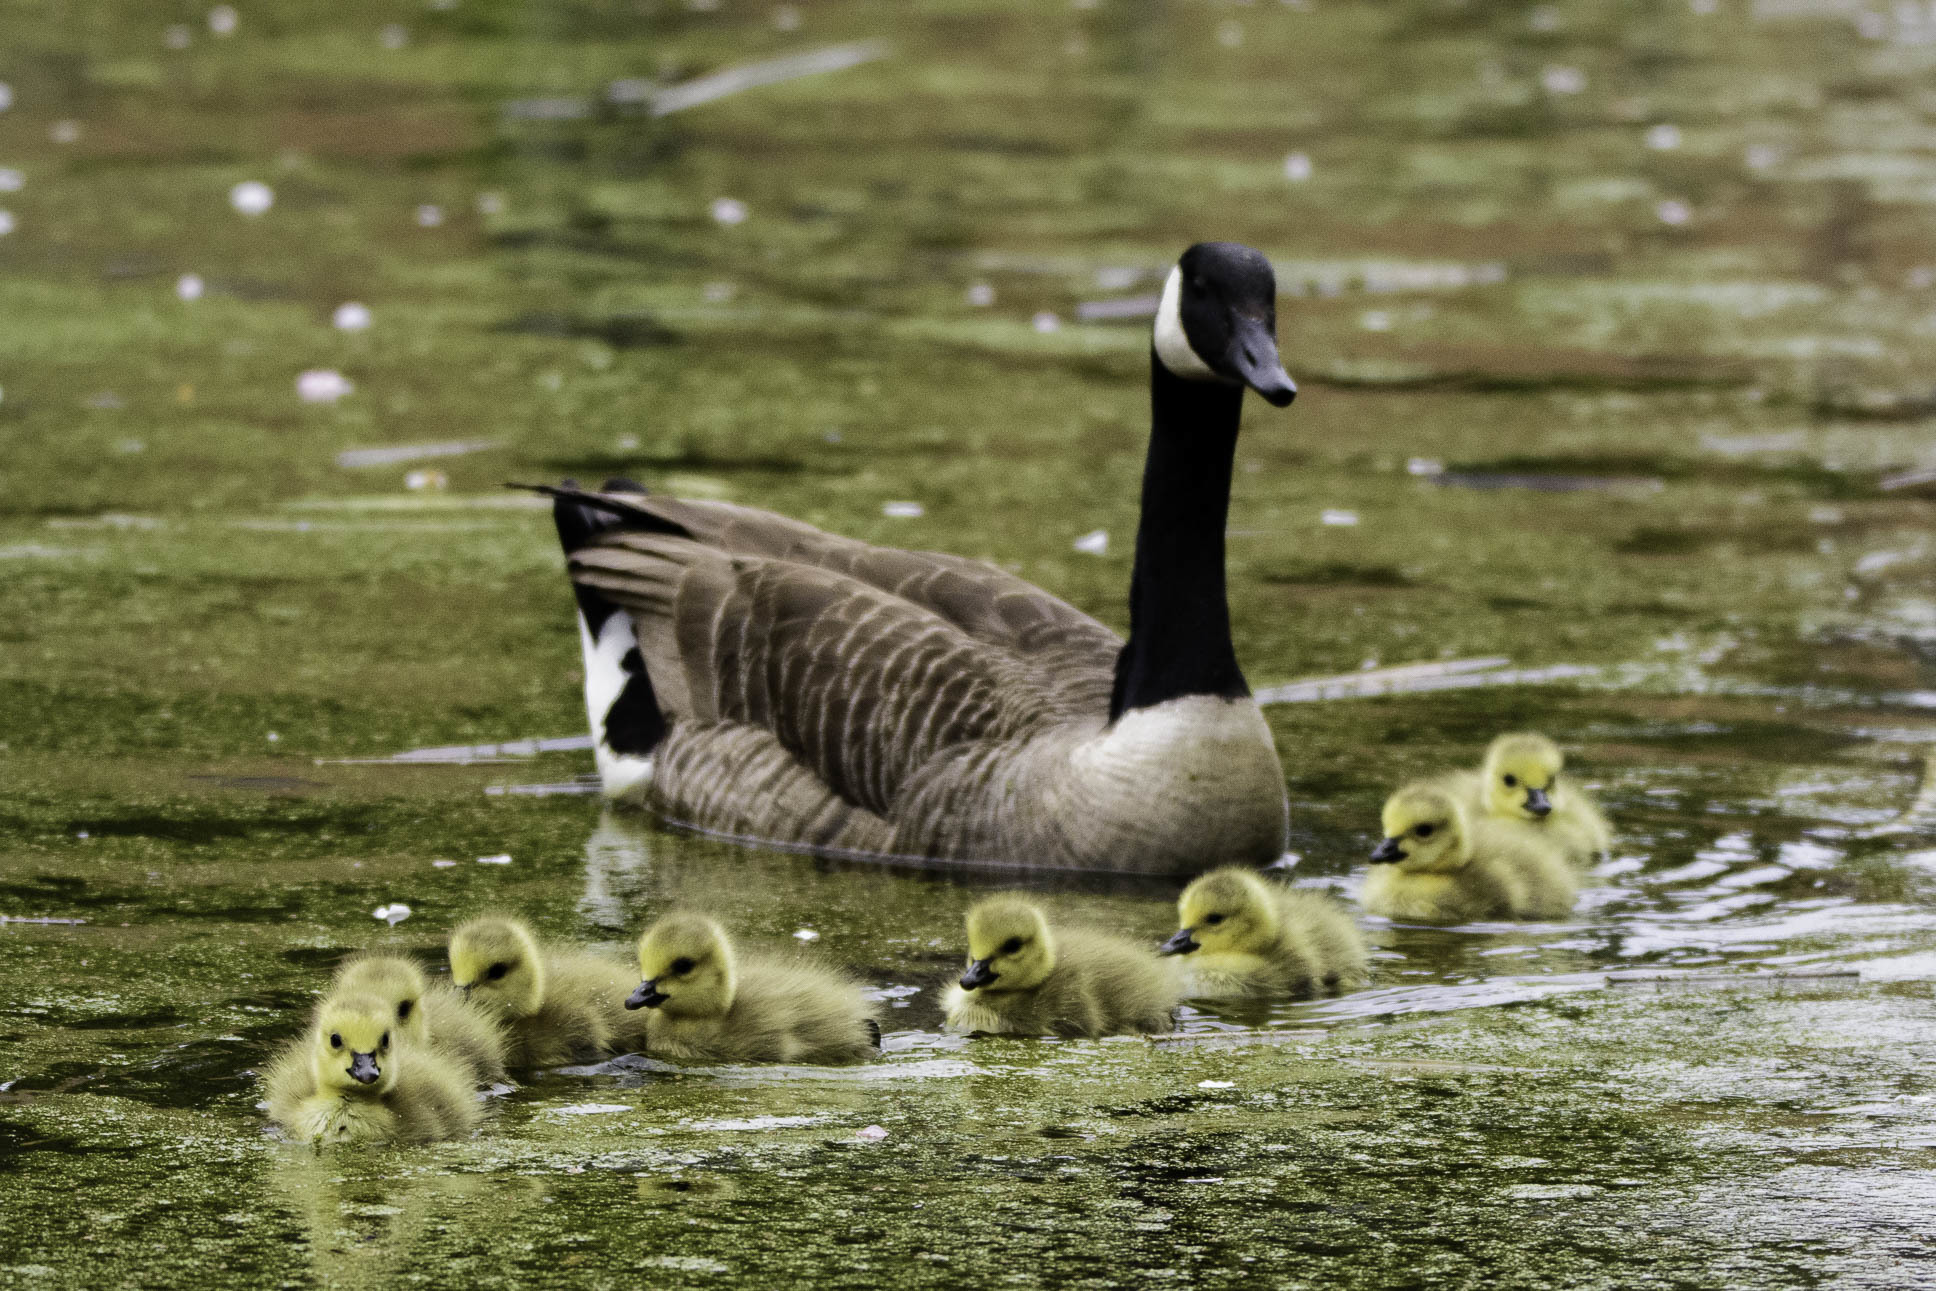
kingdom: Animalia
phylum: Chordata
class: Aves
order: Anseriformes
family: Anatidae
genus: Branta
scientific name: Branta canadensis
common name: Canada goose
